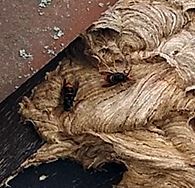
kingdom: Animalia
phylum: Arthropoda
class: Insecta
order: Hymenoptera
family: Vespidae
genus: Vespa
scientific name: Vespa velutina
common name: Asian hornet
